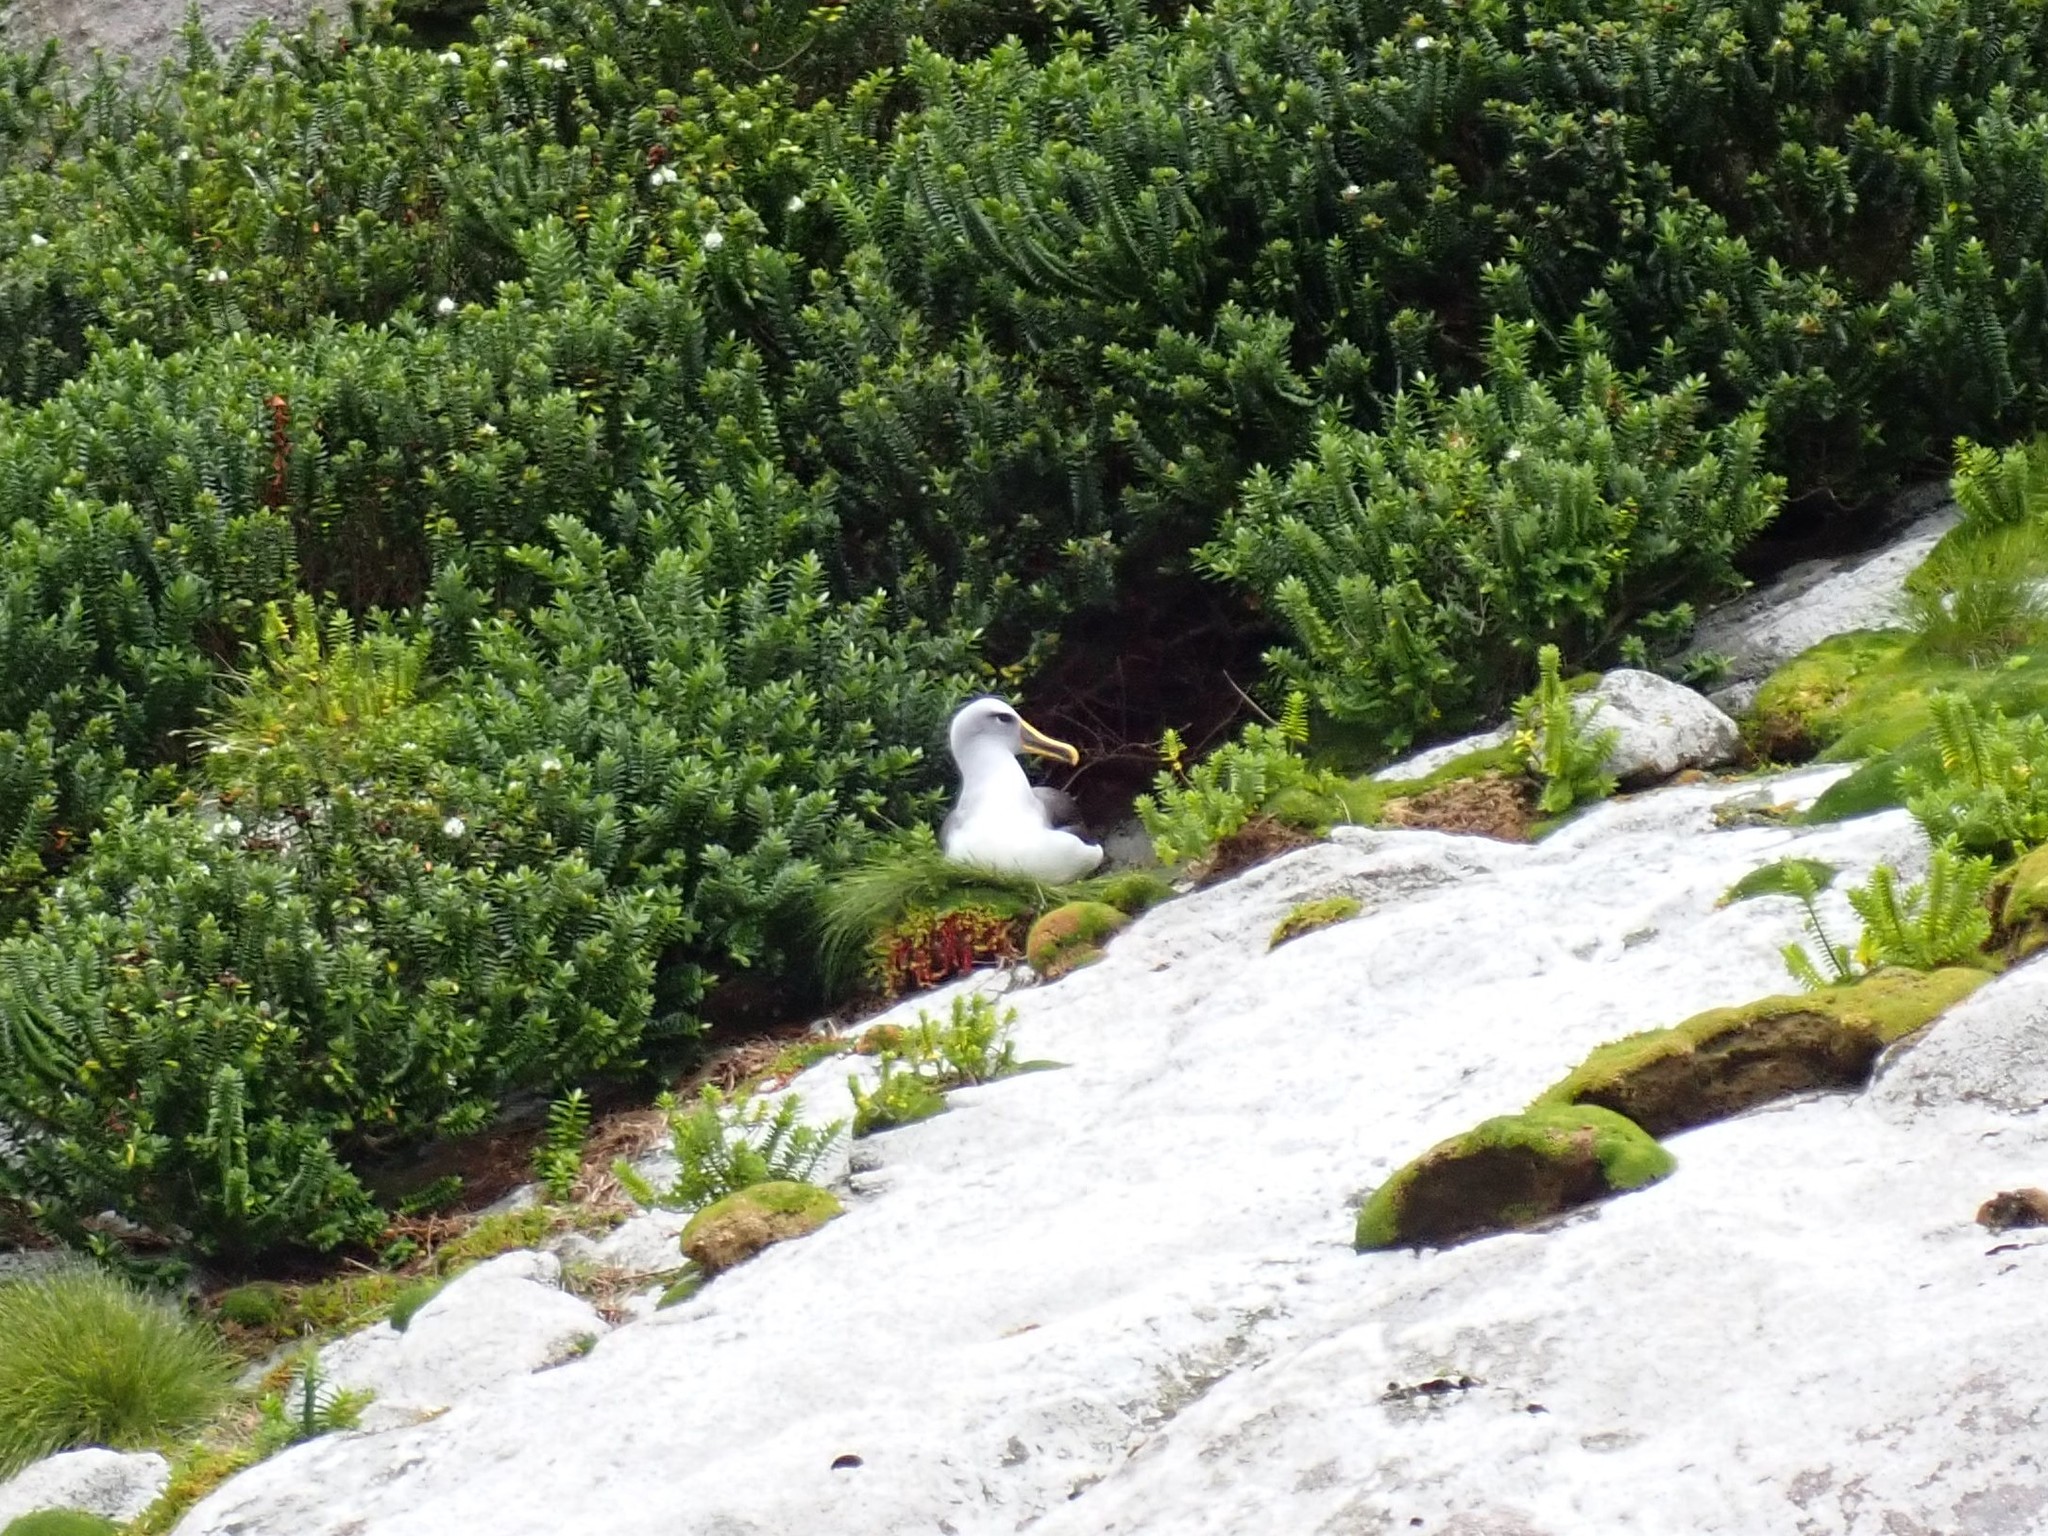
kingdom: Animalia
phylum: Chordata
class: Aves
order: Procellariiformes
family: Diomedeidae
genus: Thalassarche
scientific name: Thalassarche bulleri
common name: Buller's albatross
